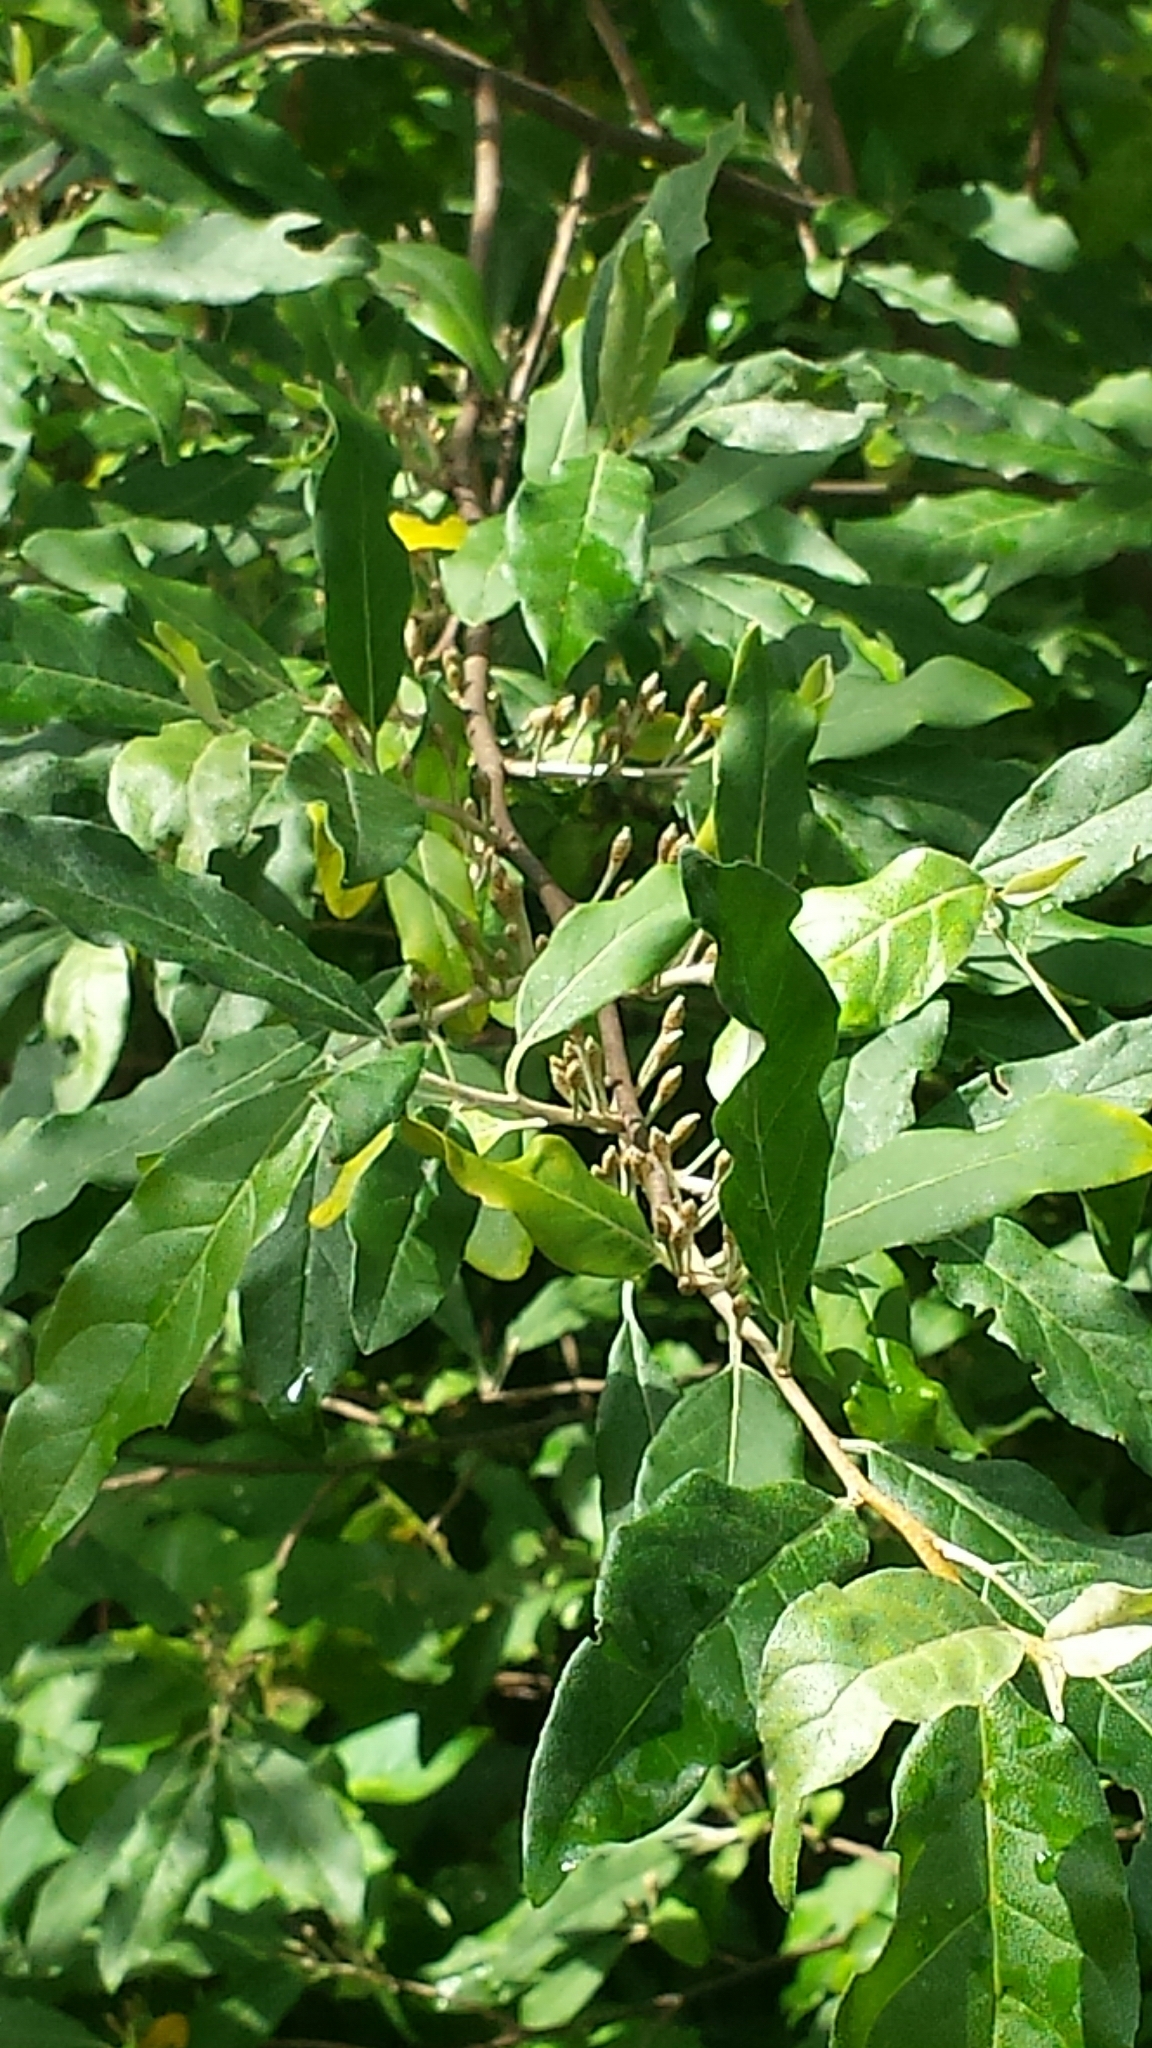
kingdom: Plantae
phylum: Tracheophyta
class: Magnoliopsida
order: Rosales
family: Elaeagnaceae
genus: Elaeagnus
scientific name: Elaeagnus umbellata
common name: Autumn olive
